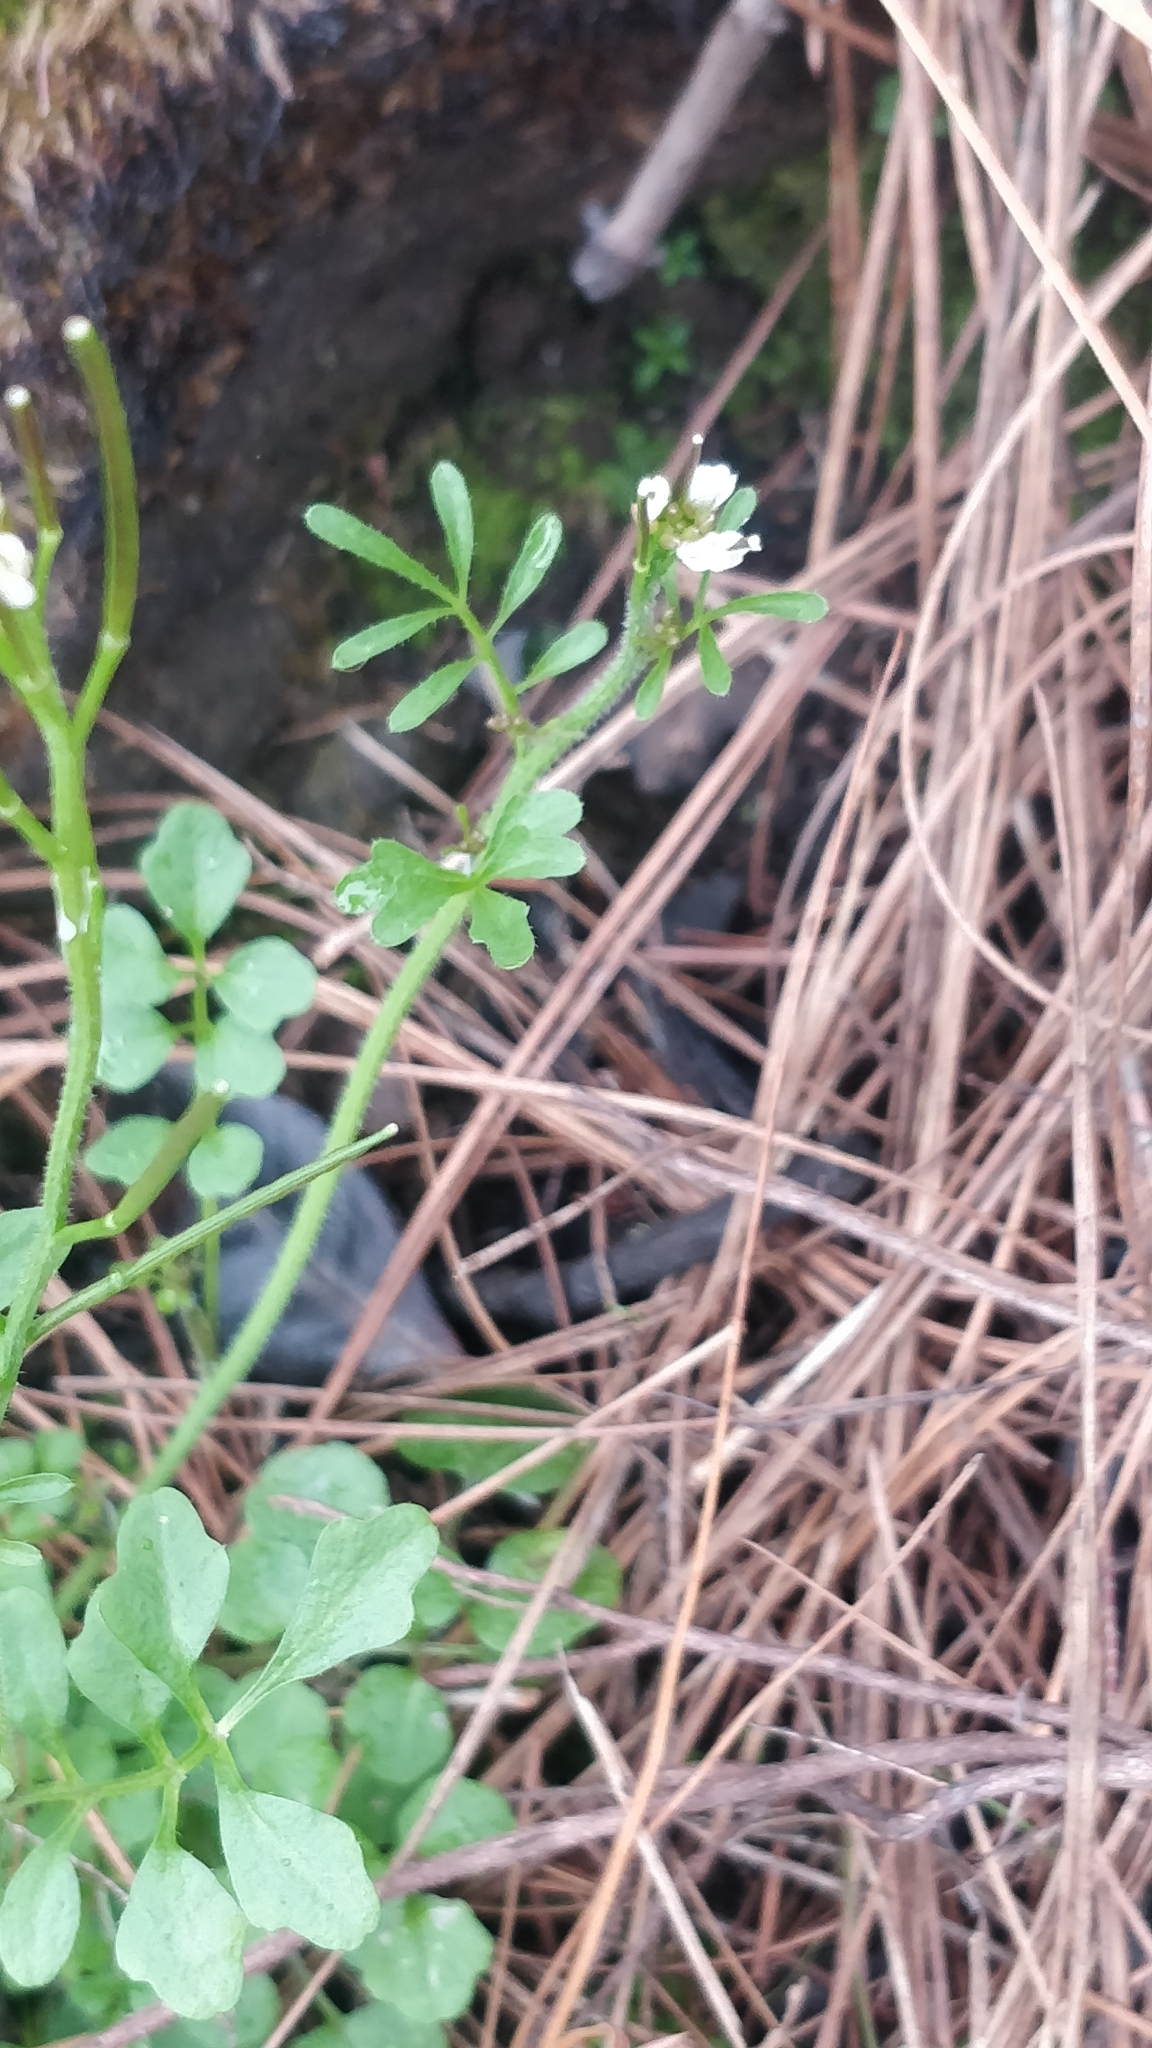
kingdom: Plantae
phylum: Tracheophyta
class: Magnoliopsida
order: Brassicales
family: Brassicaceae
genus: Cardamine
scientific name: Cardamine hirsuta
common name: Hairy bittercress
